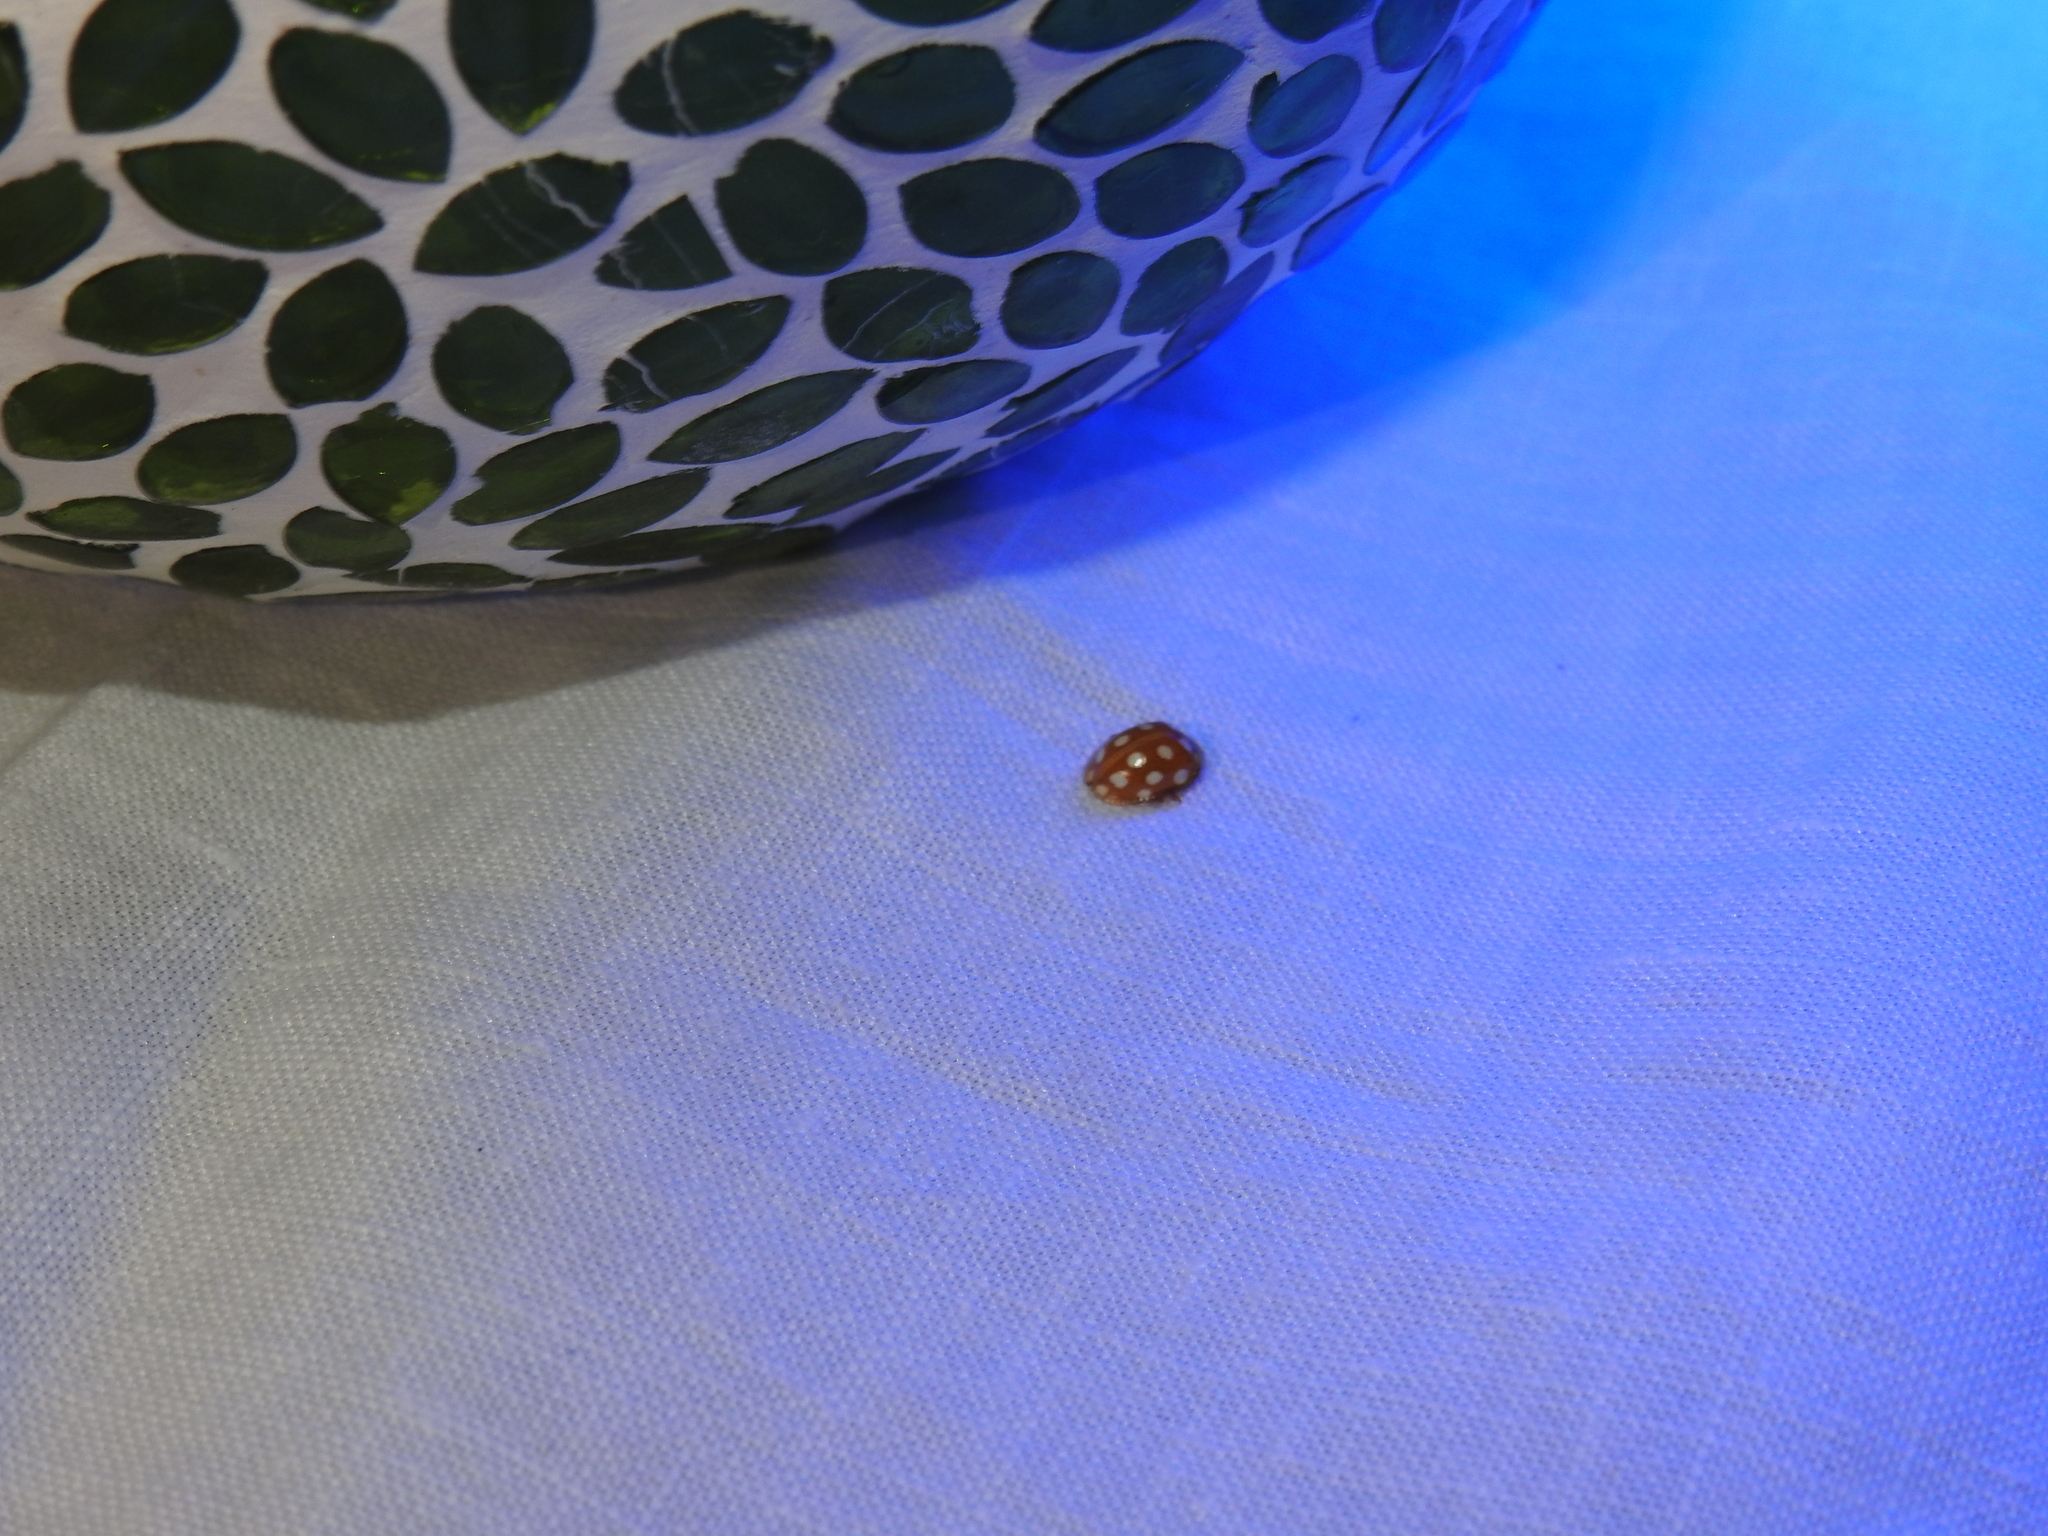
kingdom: Animalia
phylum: Arthropoda
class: Insecta
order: Coleoptera
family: Coccinellidae
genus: Halyzia
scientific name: Halyzia sedecimguttata
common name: Orange ladybird
